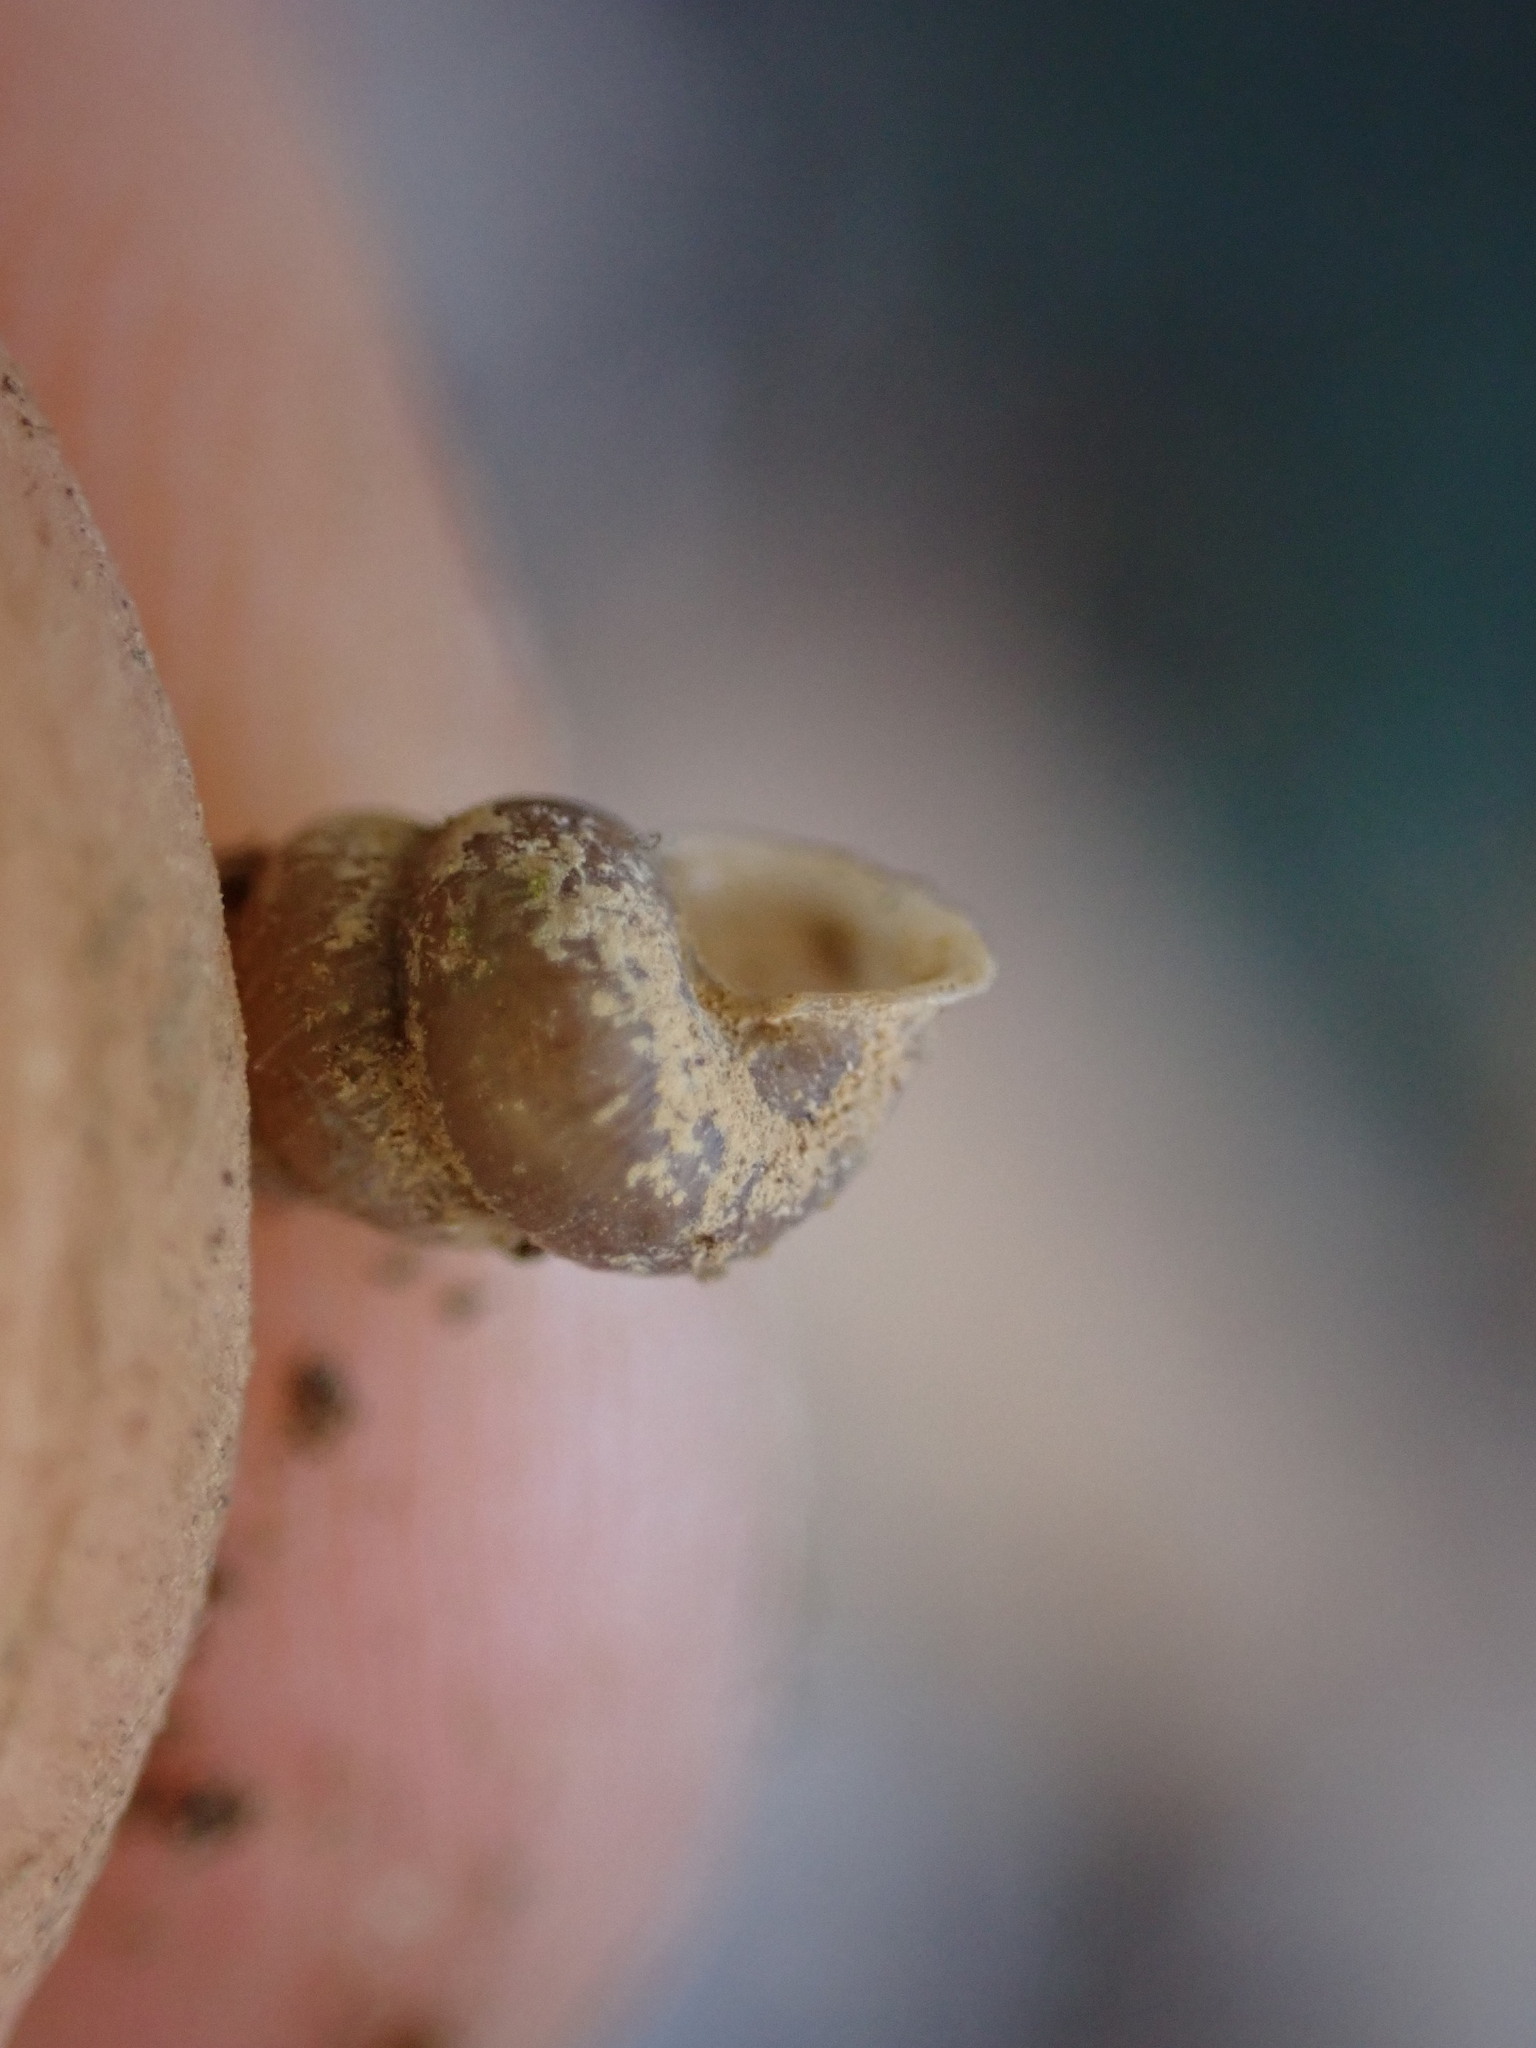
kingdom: Animalia
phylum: Mollusca
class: Gastropoda
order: Architaenioglossa
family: Cochlostomatidae
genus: Cochlostoma
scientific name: Cochlostoma patulum
